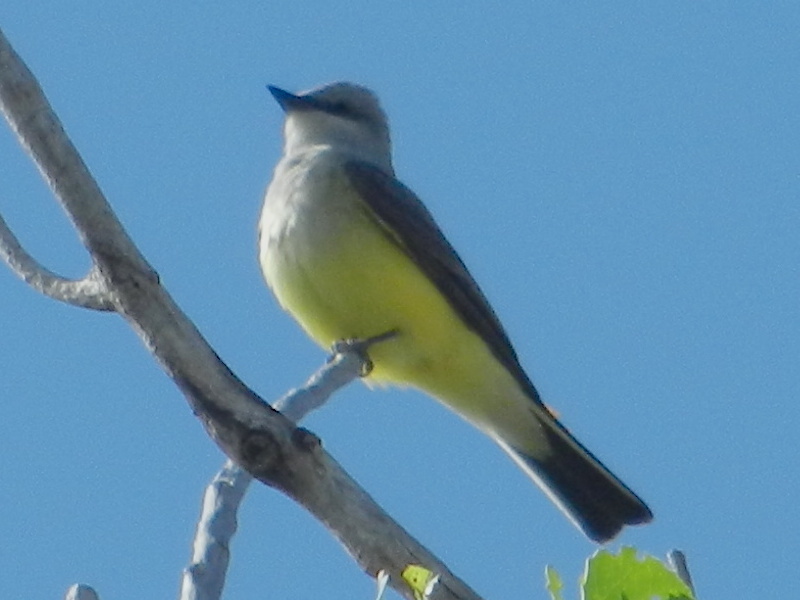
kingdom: Animalia
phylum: Chordata
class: Aves
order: Passeriformes
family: Tyrannidae
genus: Tyrannus
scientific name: Tyrannus verticalis
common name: Western kingbird
